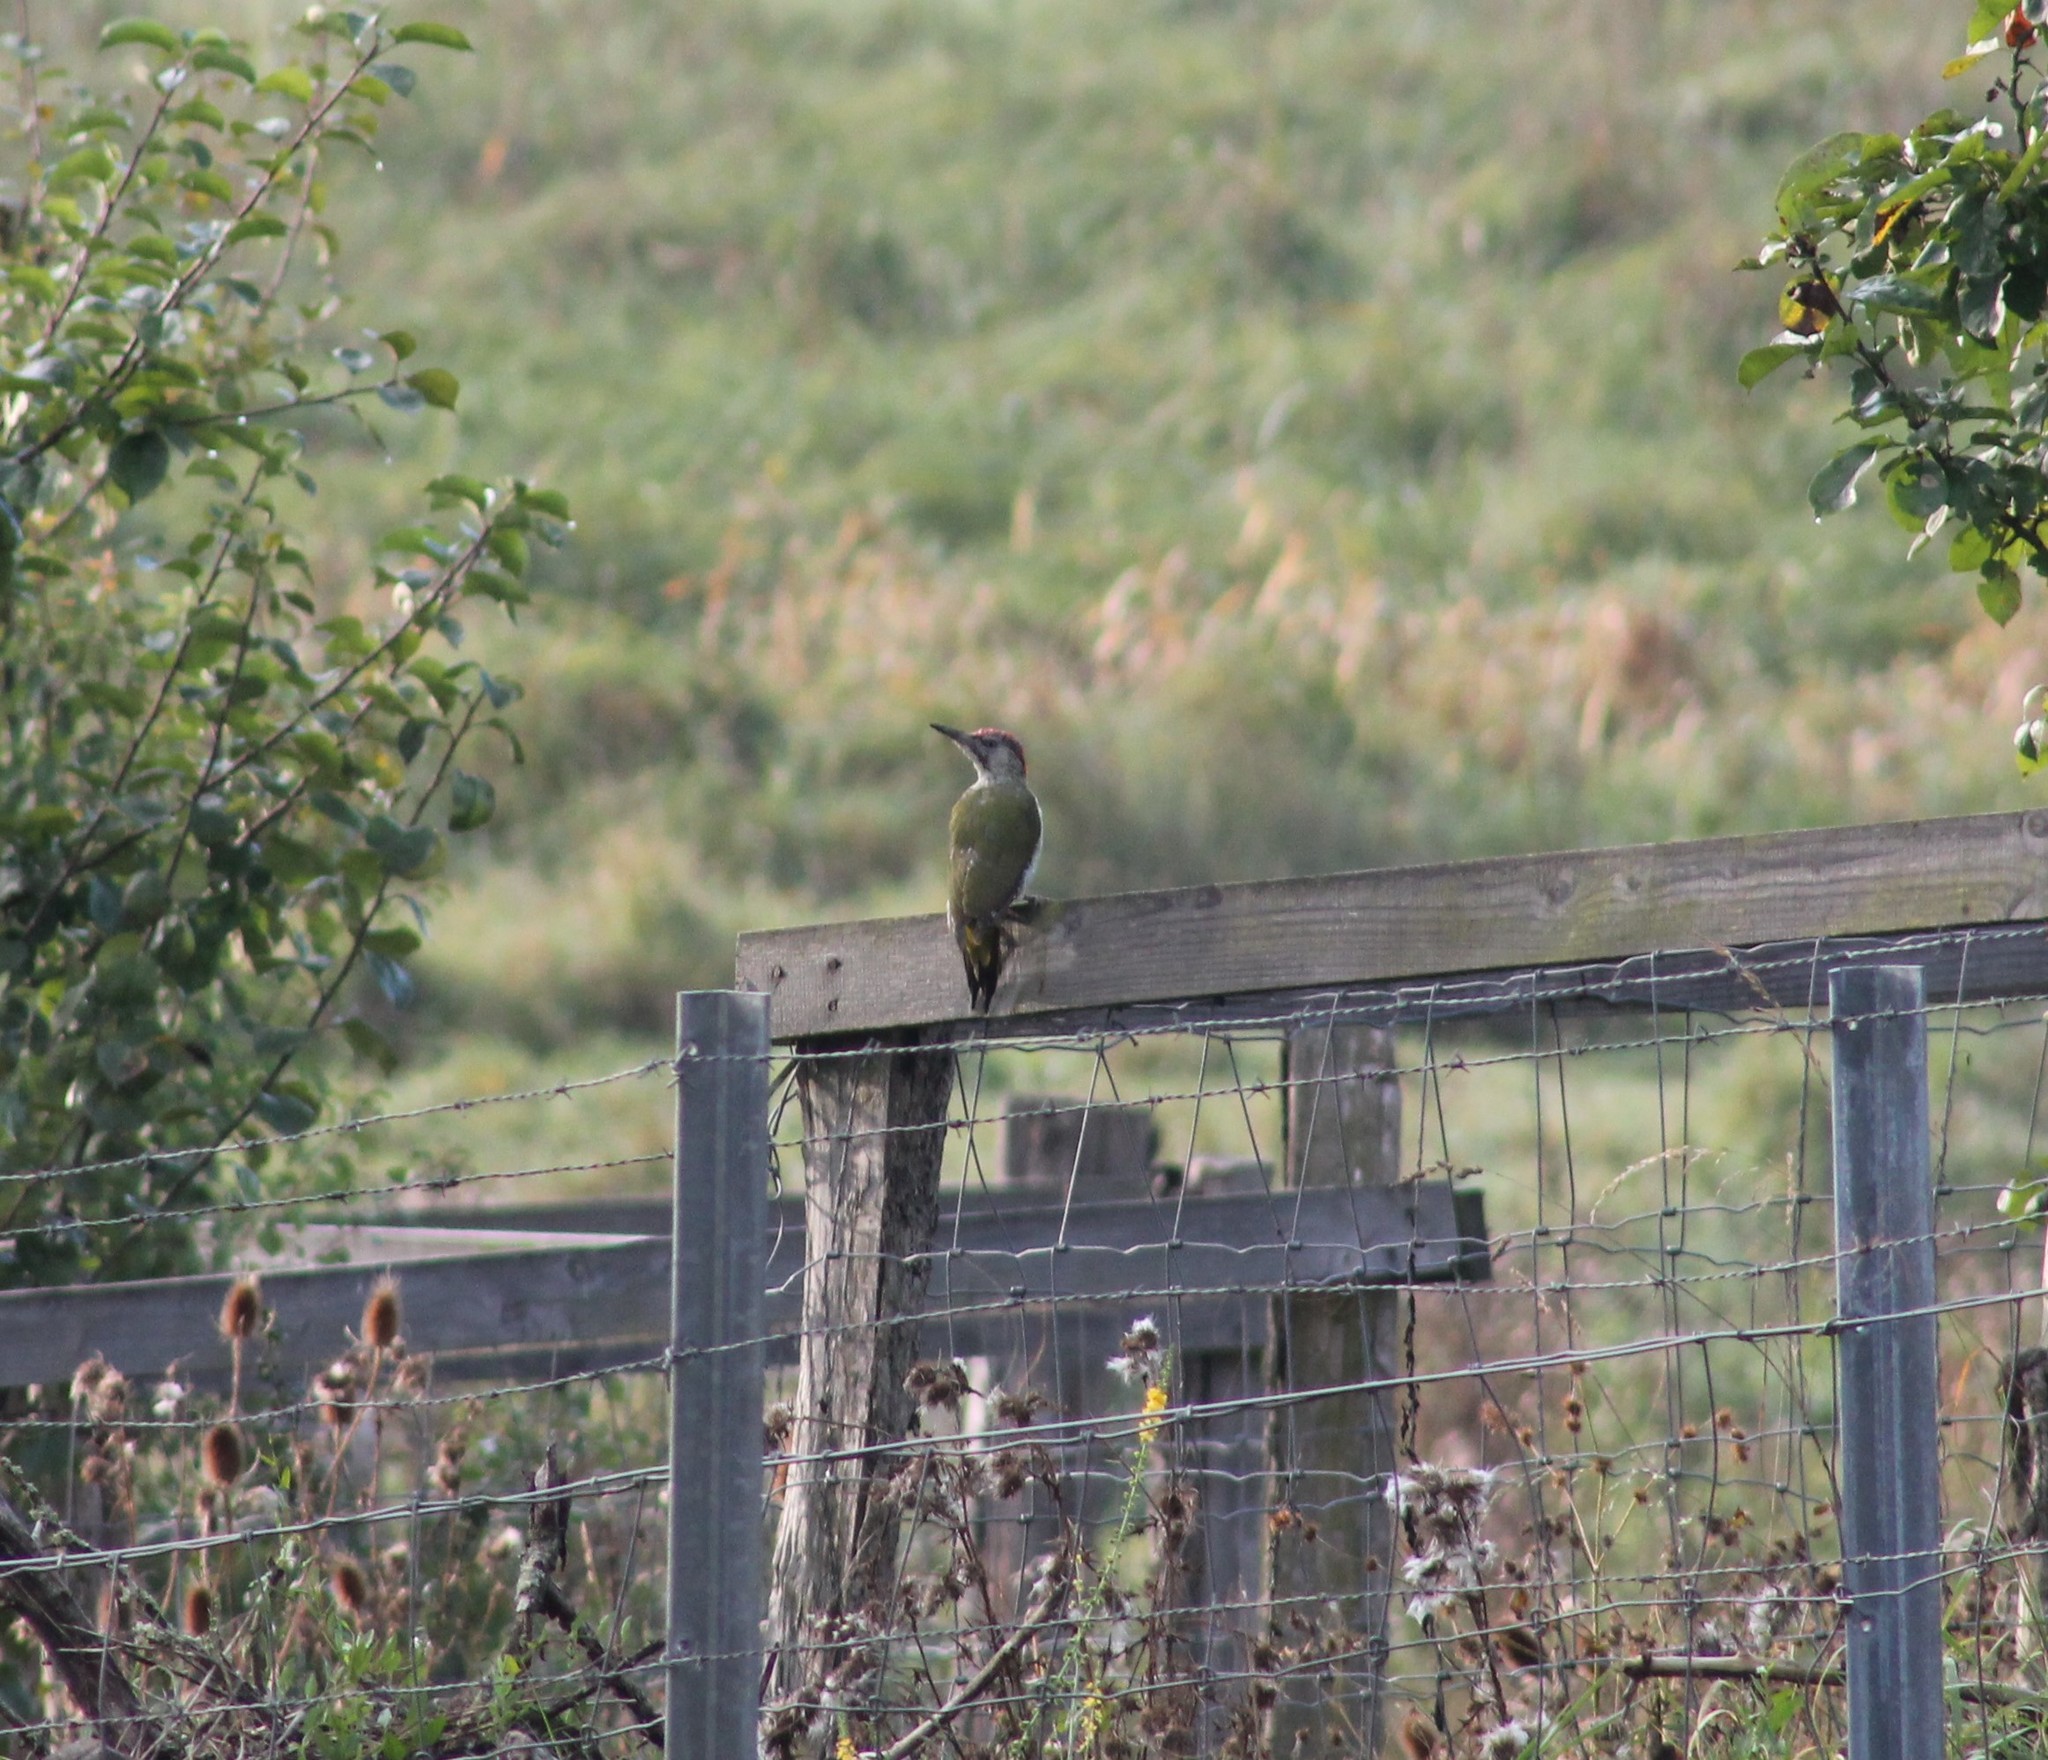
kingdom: Animalia
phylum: Chordata
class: Aves
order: Piciformes
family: Picidae
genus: Picus
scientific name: Picus viridis
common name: European green woodpecker
